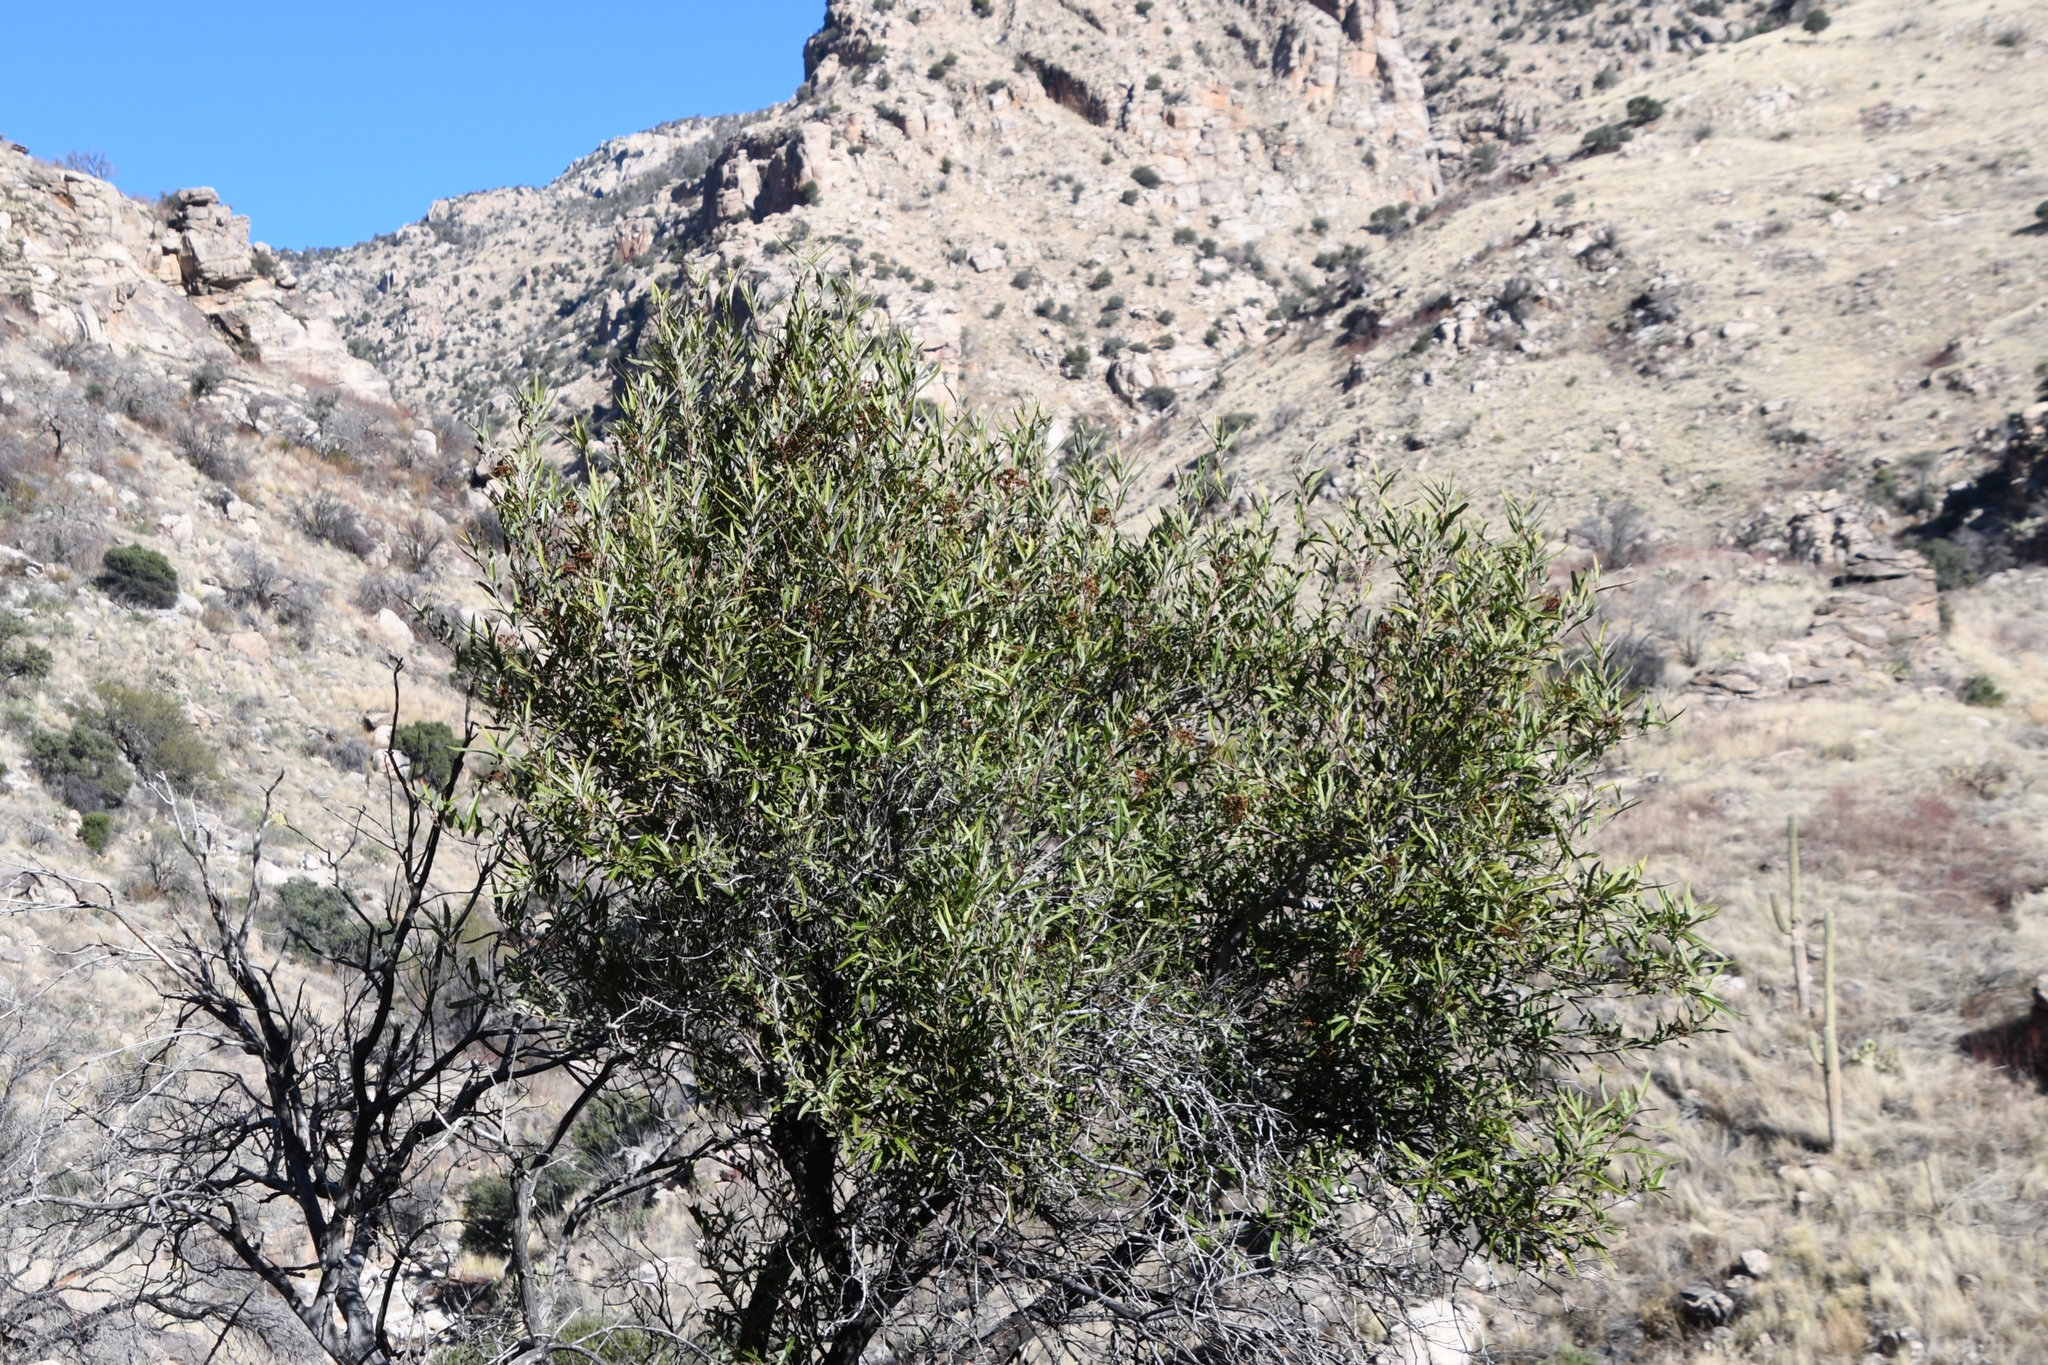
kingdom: Plantae
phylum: Tracheophyta
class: Magnoliopsida
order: Rosales
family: Rosaceae
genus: Vauquelinia
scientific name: Vauquelinia californica
